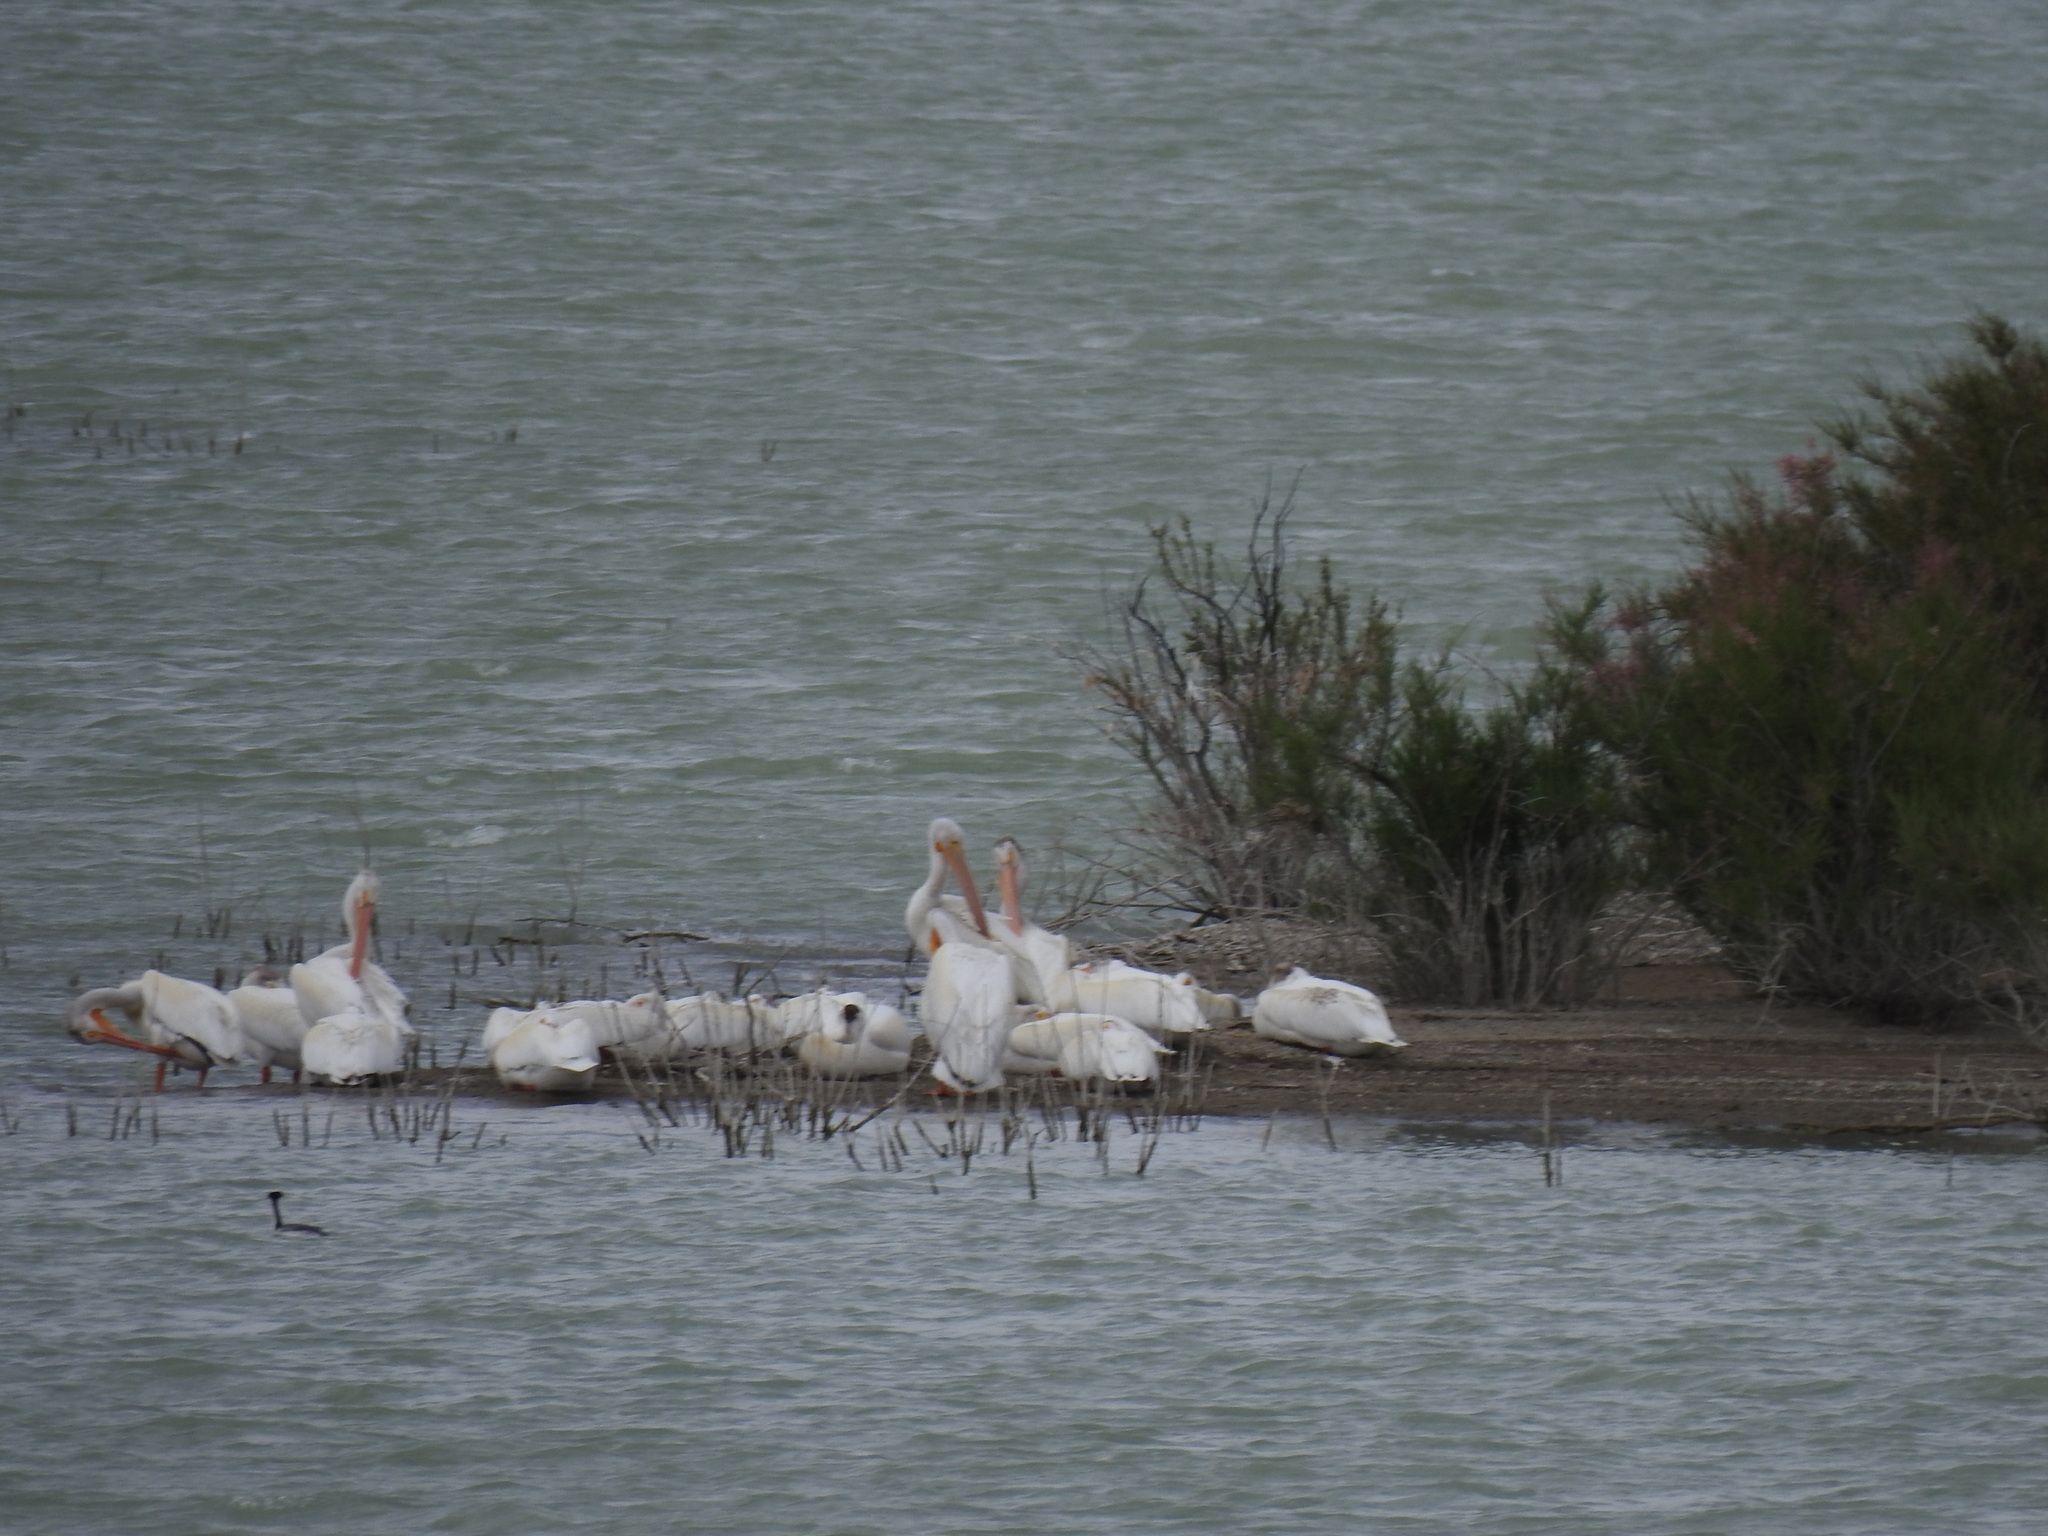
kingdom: Animalia
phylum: Chordata
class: Aves
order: Pelecaniformes
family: Pelecanidae
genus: Pelecanus
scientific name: Pelecanus erythrorhynchos
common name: American white pelican
